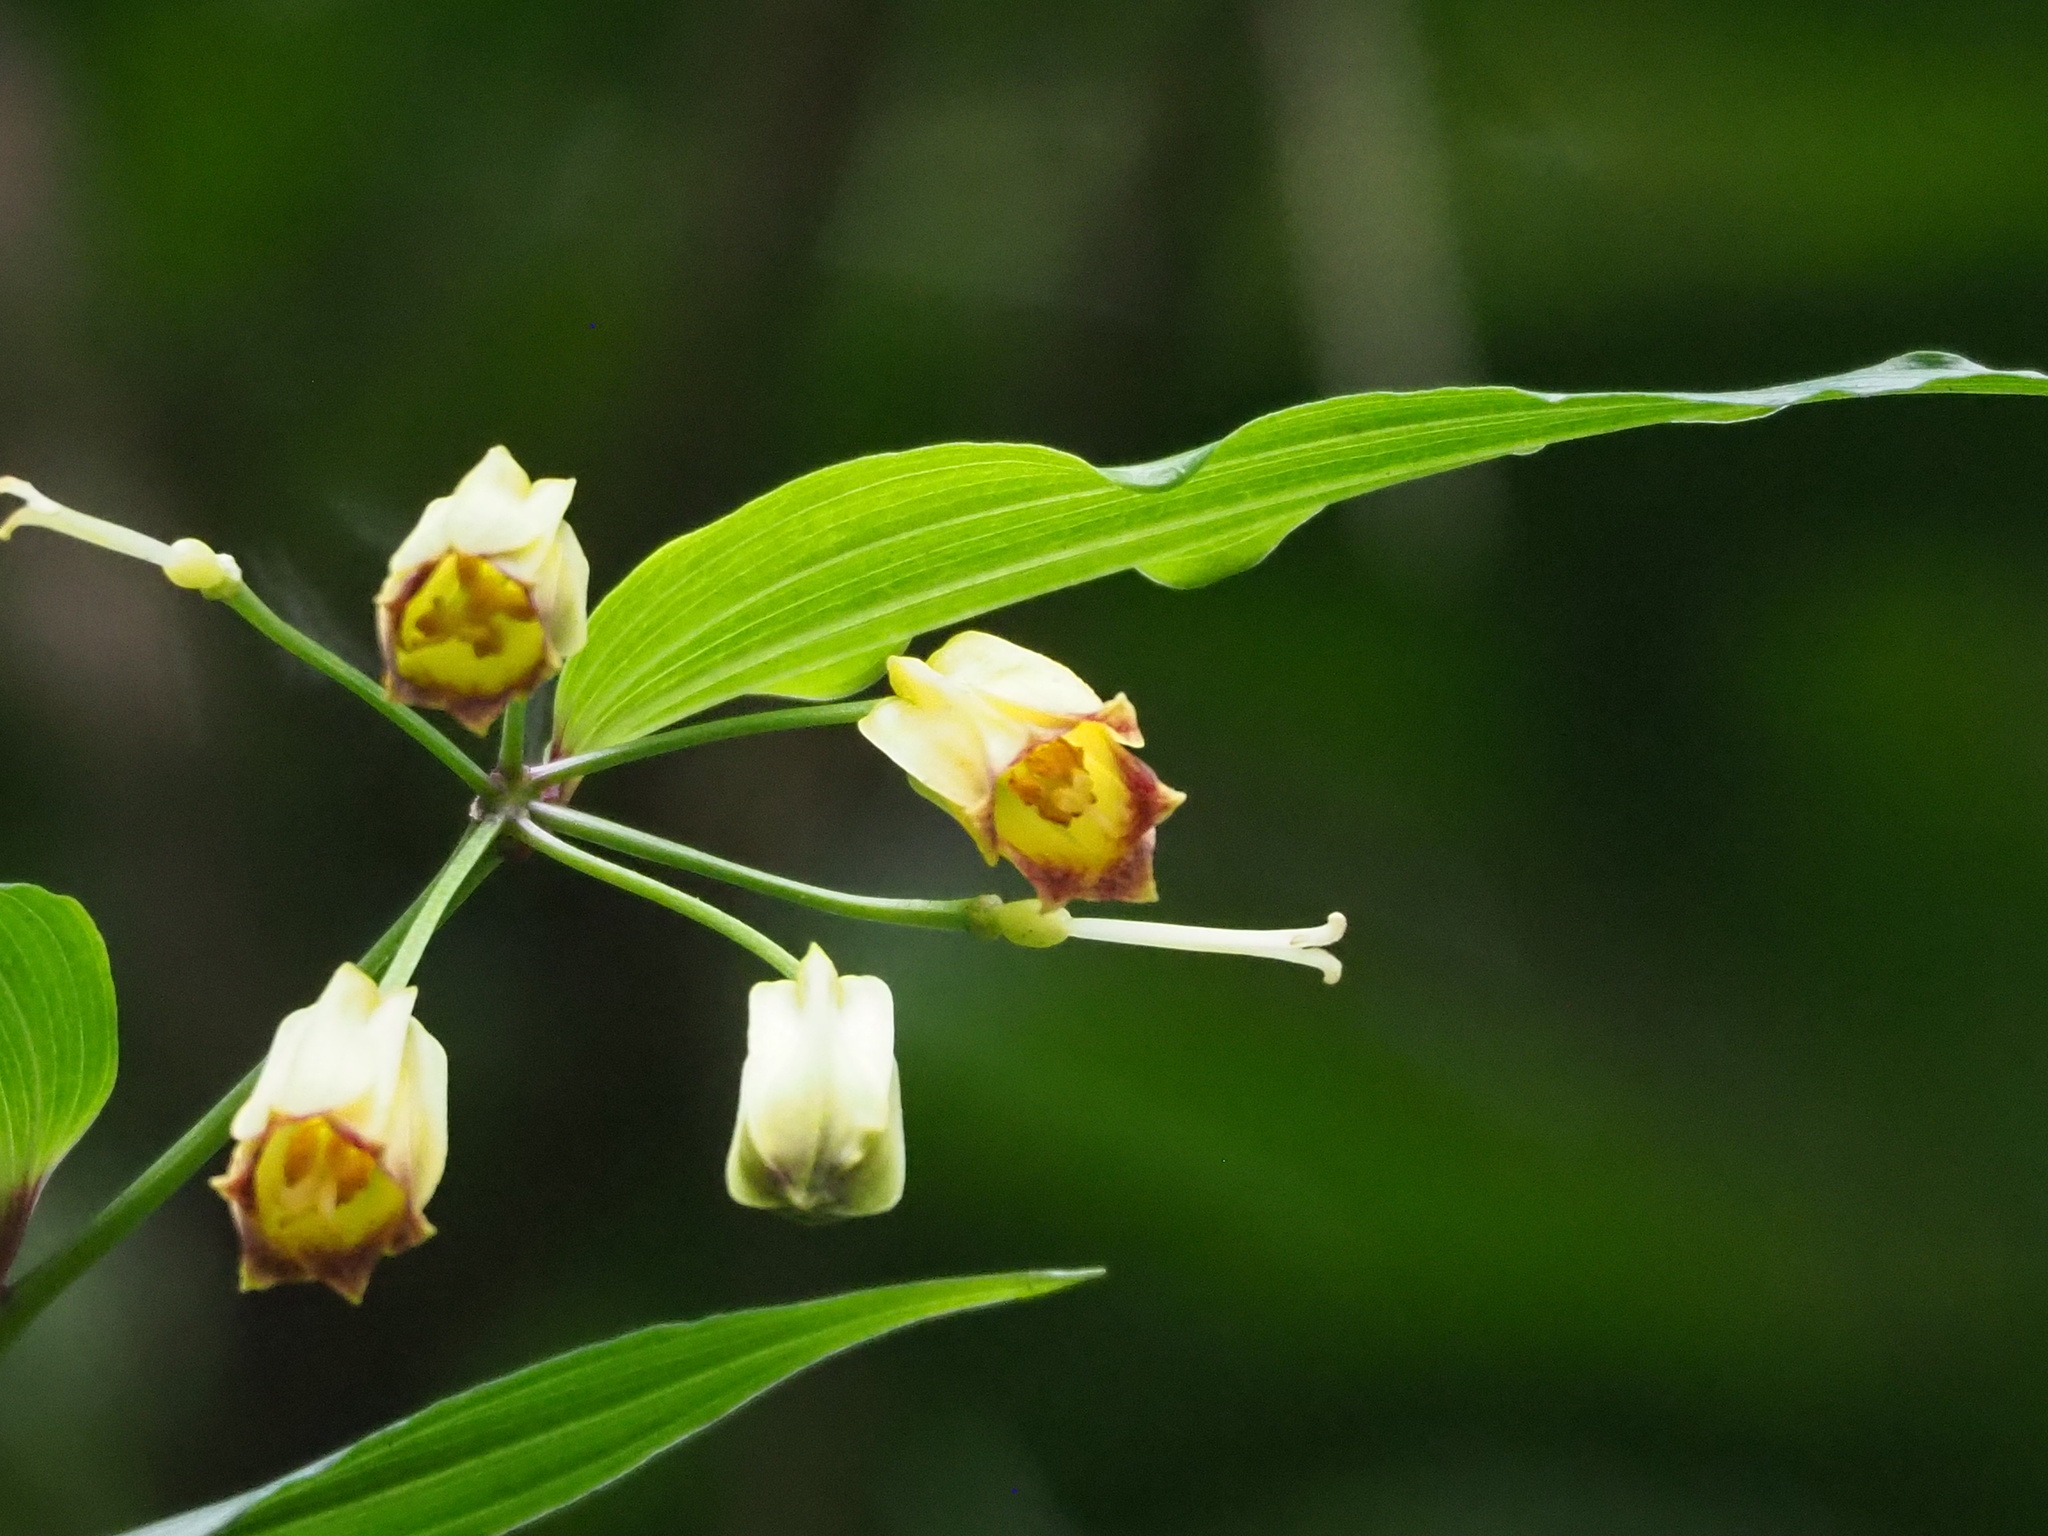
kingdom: Plantae
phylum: Tracheophyta
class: Liliopsida
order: Liliales
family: Colchicaceae
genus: Disporum
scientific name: Disporum kawakamii
